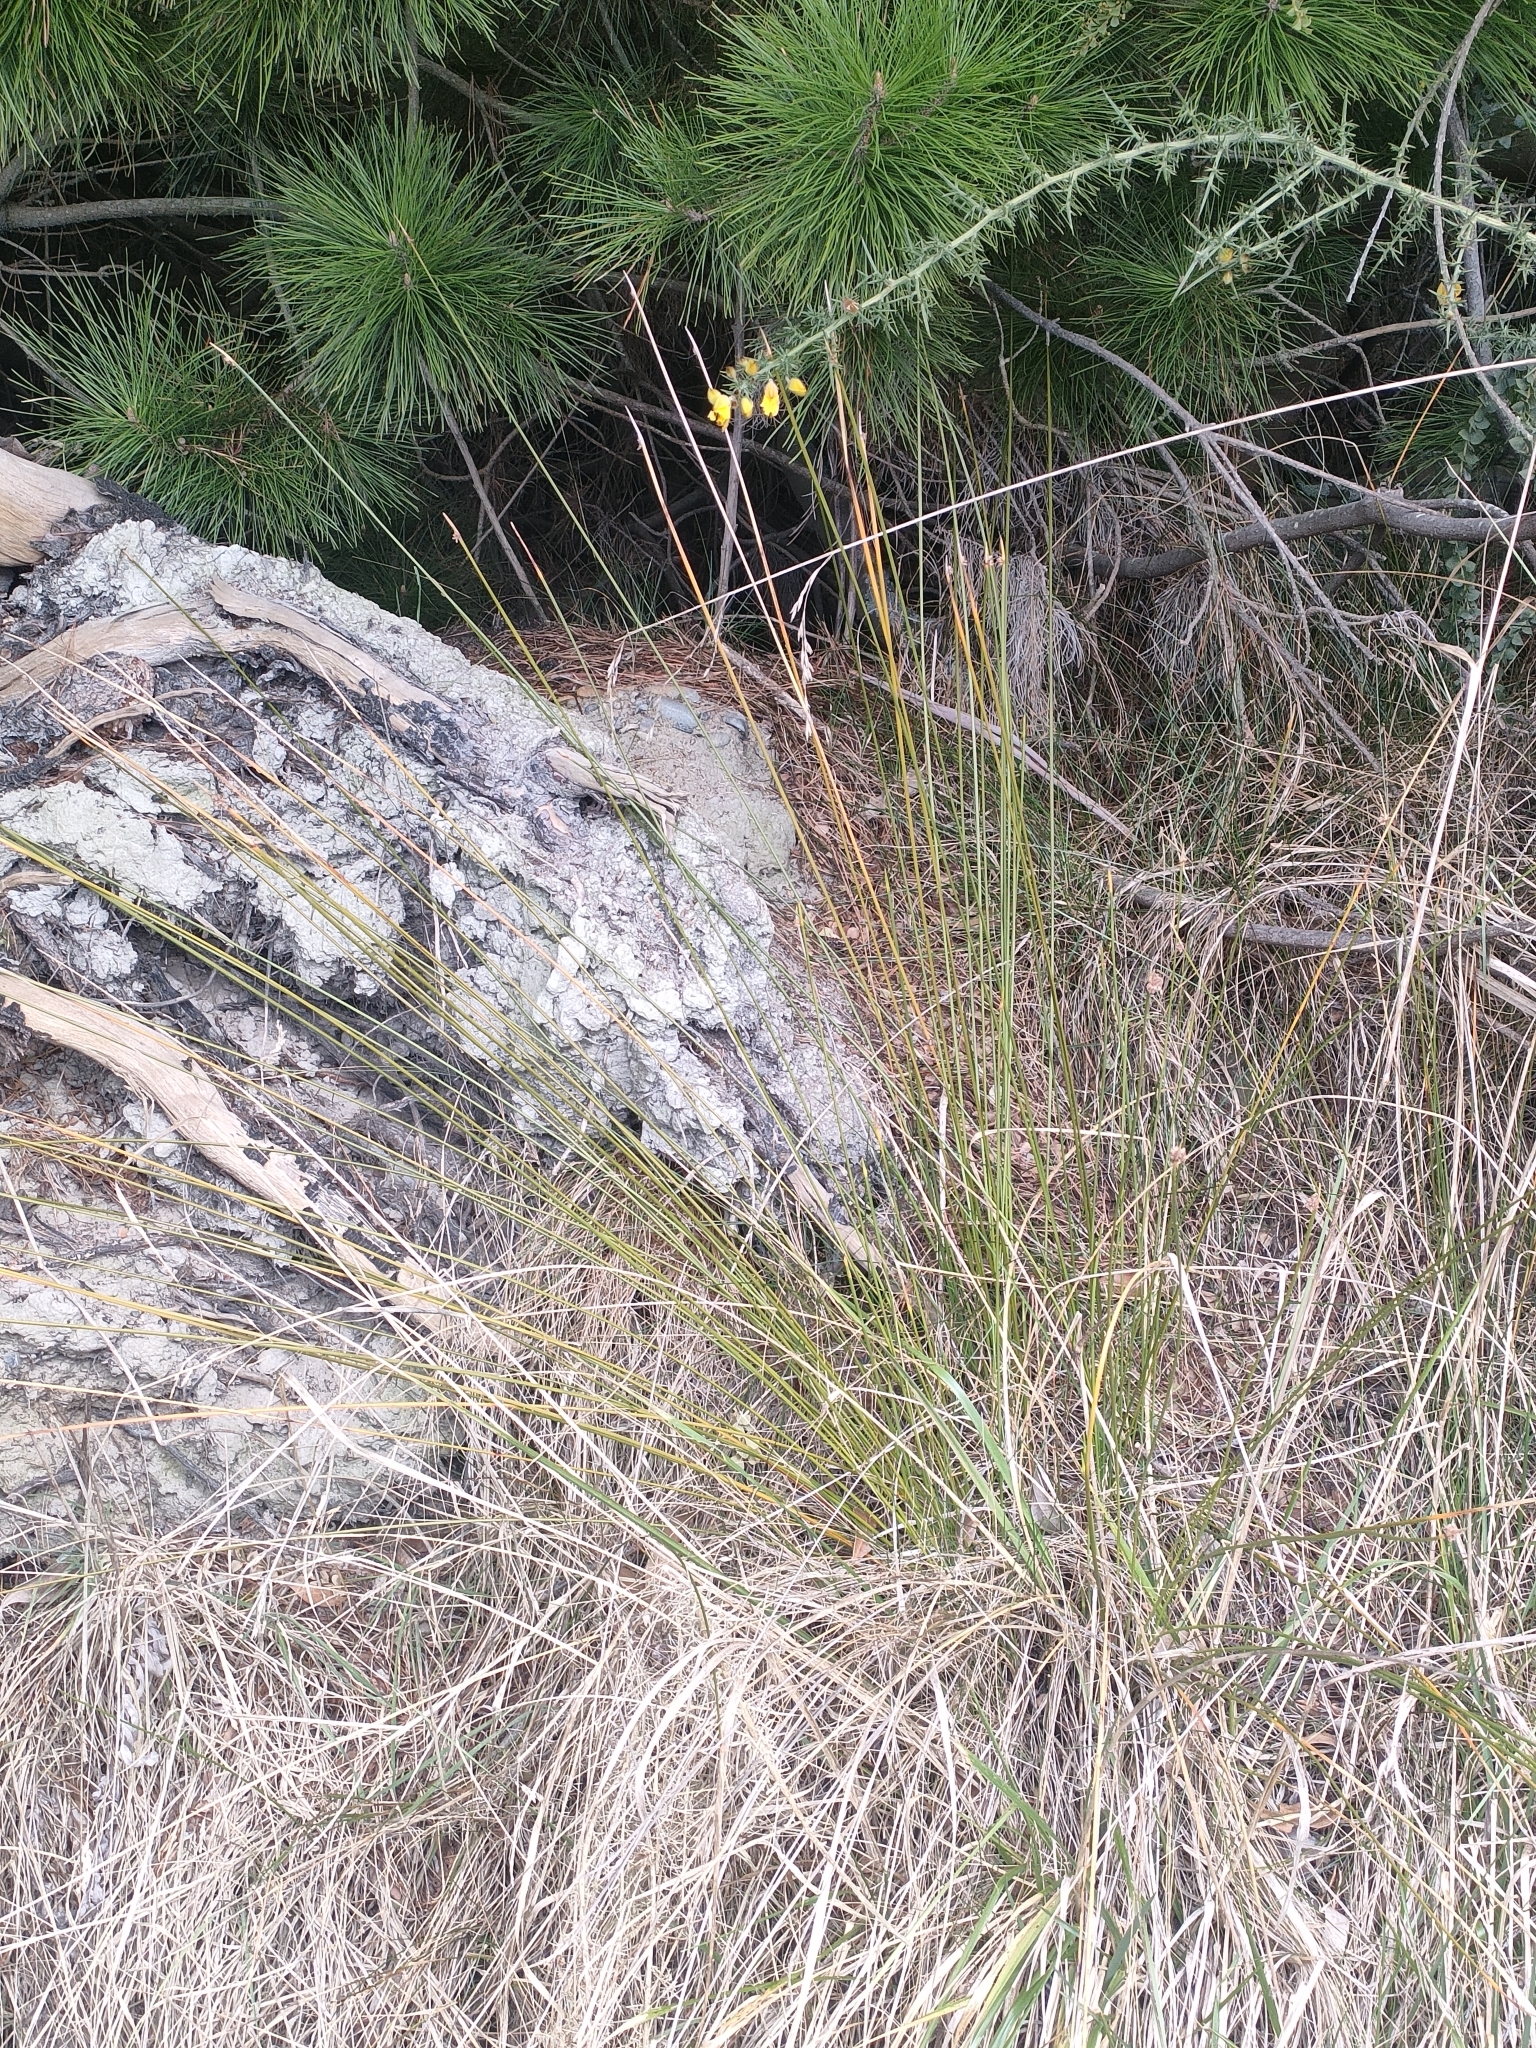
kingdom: Plantae
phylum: Tracheophyta
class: Liliopsida
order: Poales
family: Cyperaceae
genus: Ficinia
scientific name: Ficinia nodosa
